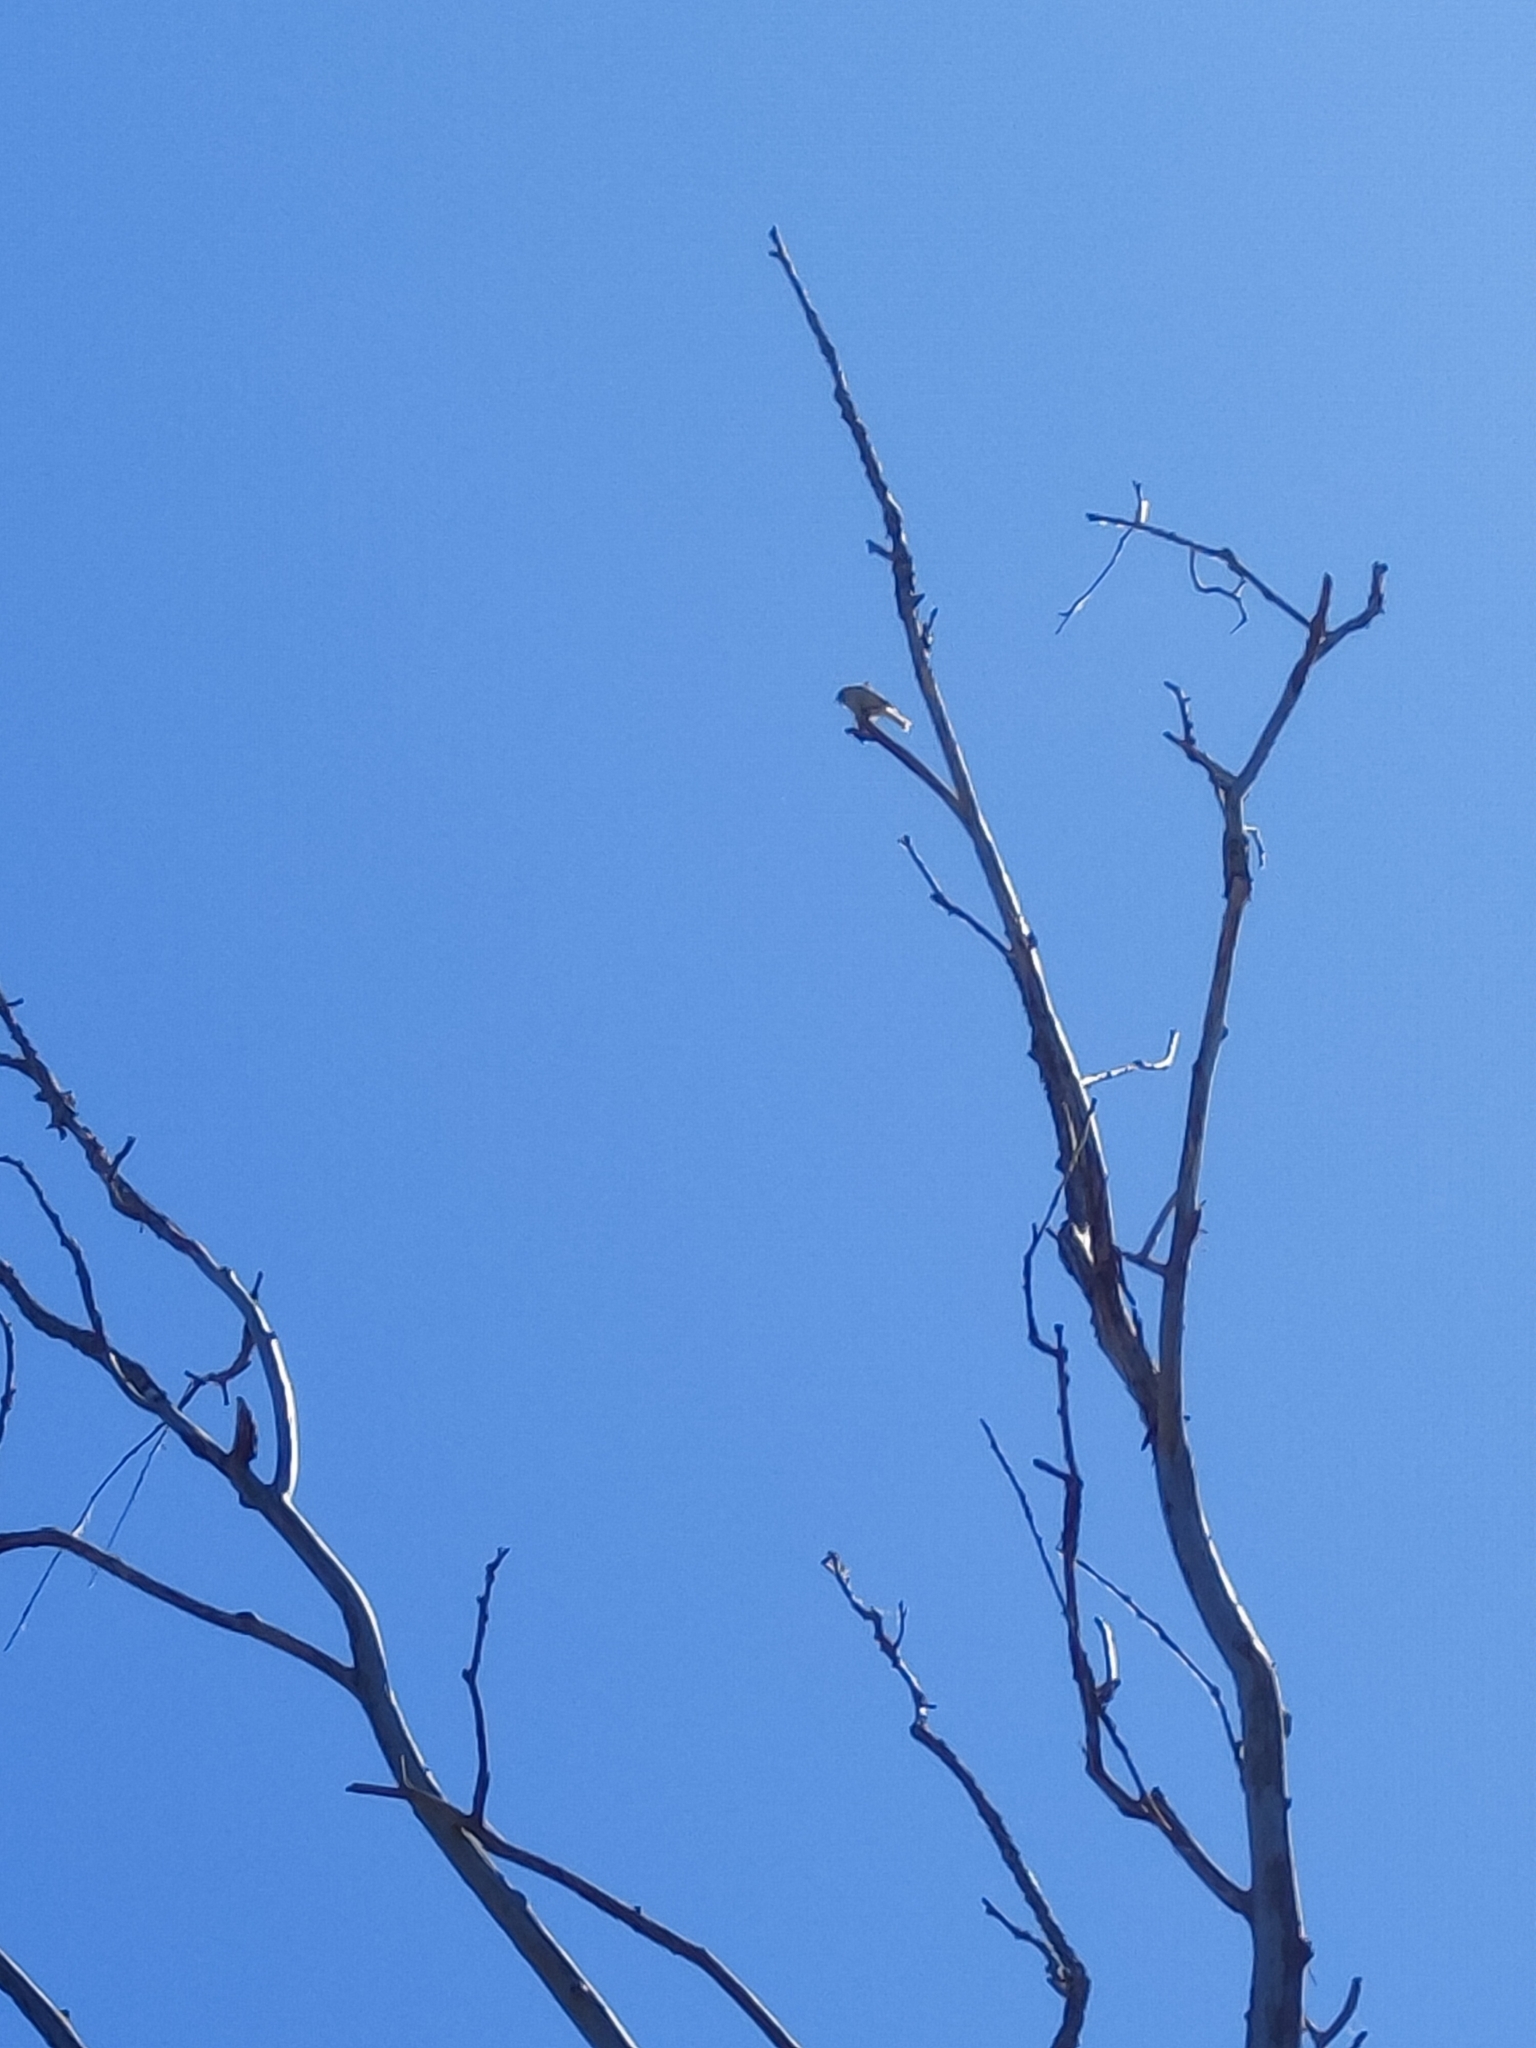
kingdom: Animalia
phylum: Chordata
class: Aves
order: Passeriformes
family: Phylloscopidae
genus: Phylloscopus
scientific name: Phylloscopus collybita
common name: Common chiffchaff
